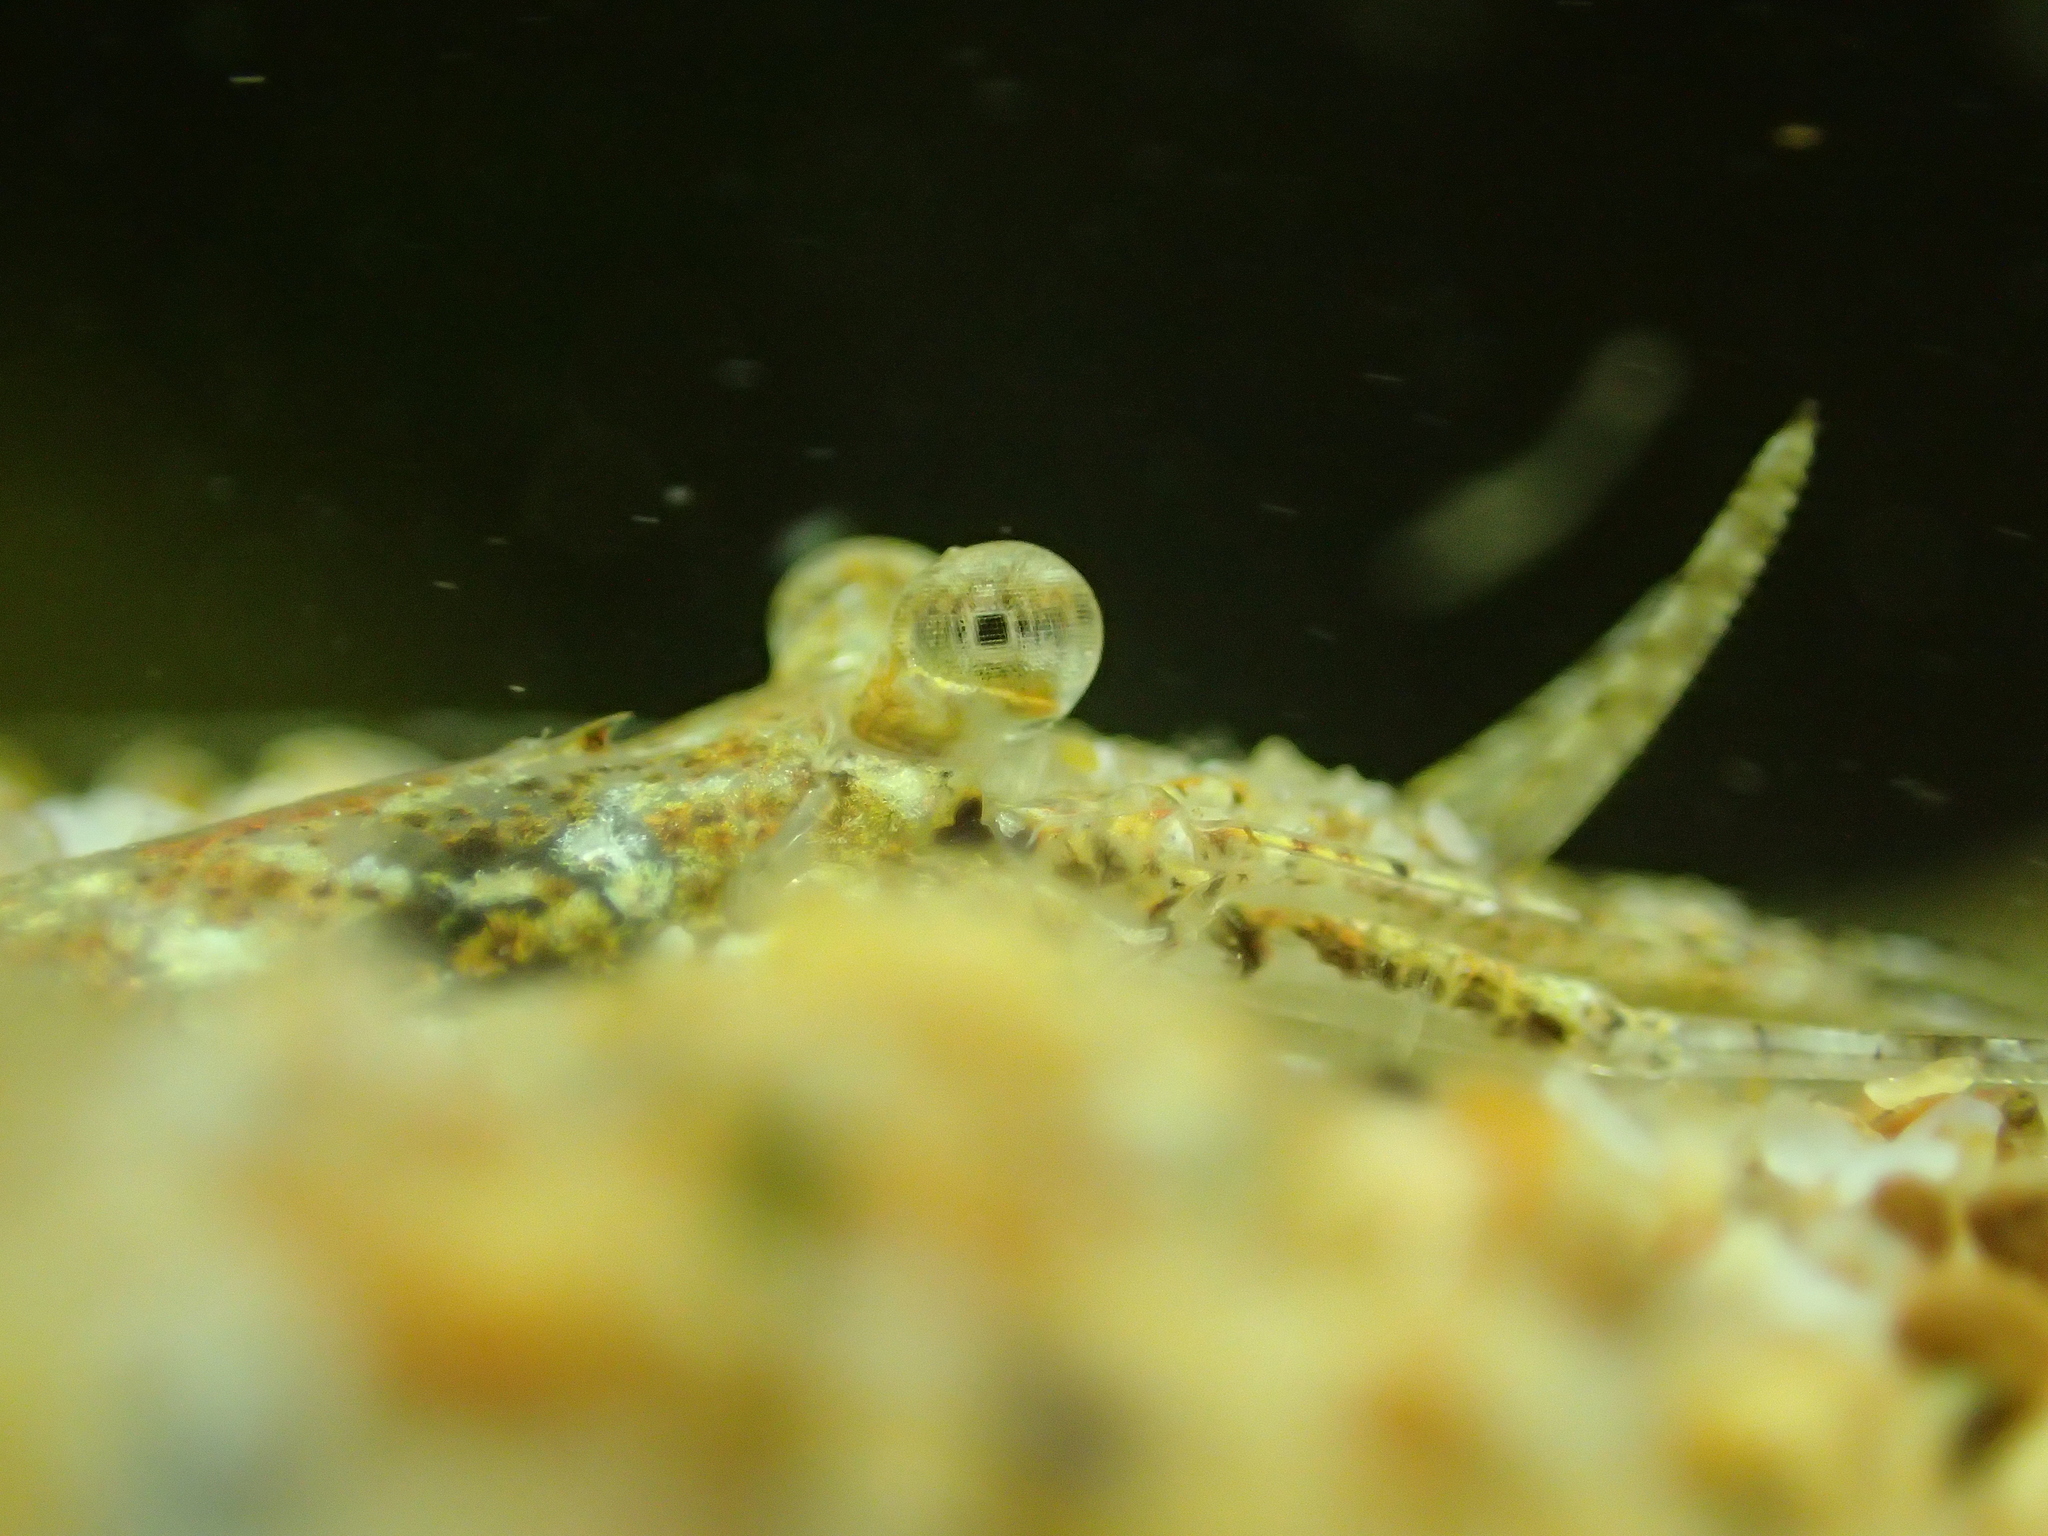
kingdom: Animalia
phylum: Arthropoda
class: Malacostraca
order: Decapoda
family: Crangonidae
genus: Crangon
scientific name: Crangon crangon
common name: Brown shrimp
